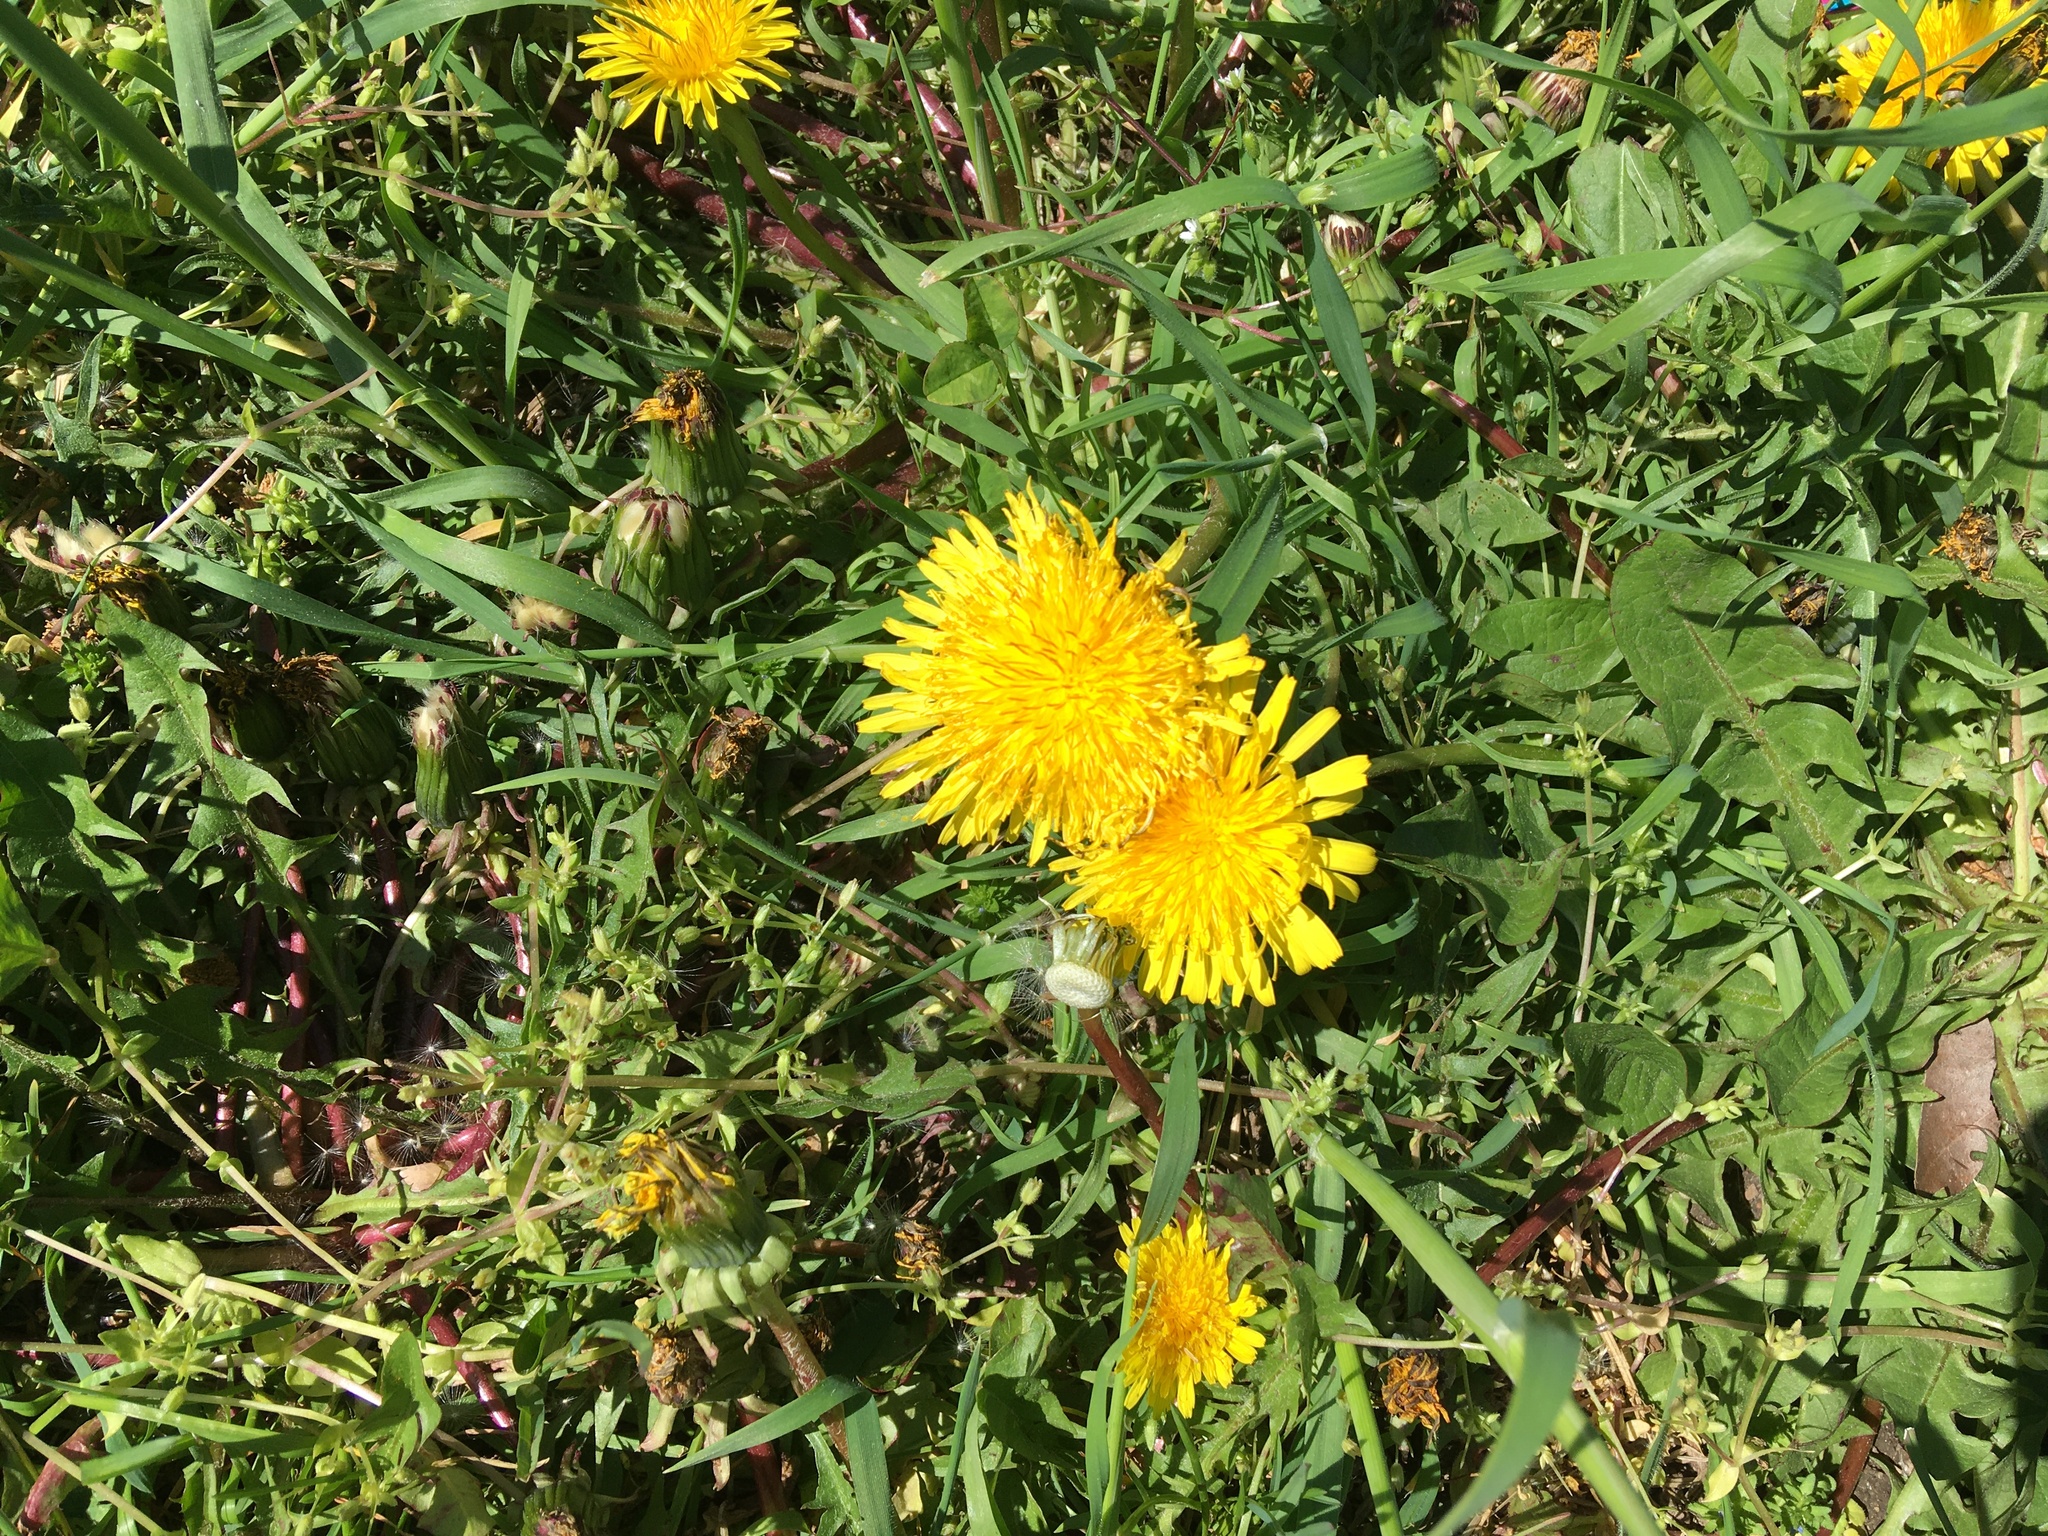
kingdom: Plantae
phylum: Tracheophyta
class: Magnoliopsida
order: Asterales
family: Asteraceae
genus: Taraxacum
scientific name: Taraxacum officinale
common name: Common dandelion
